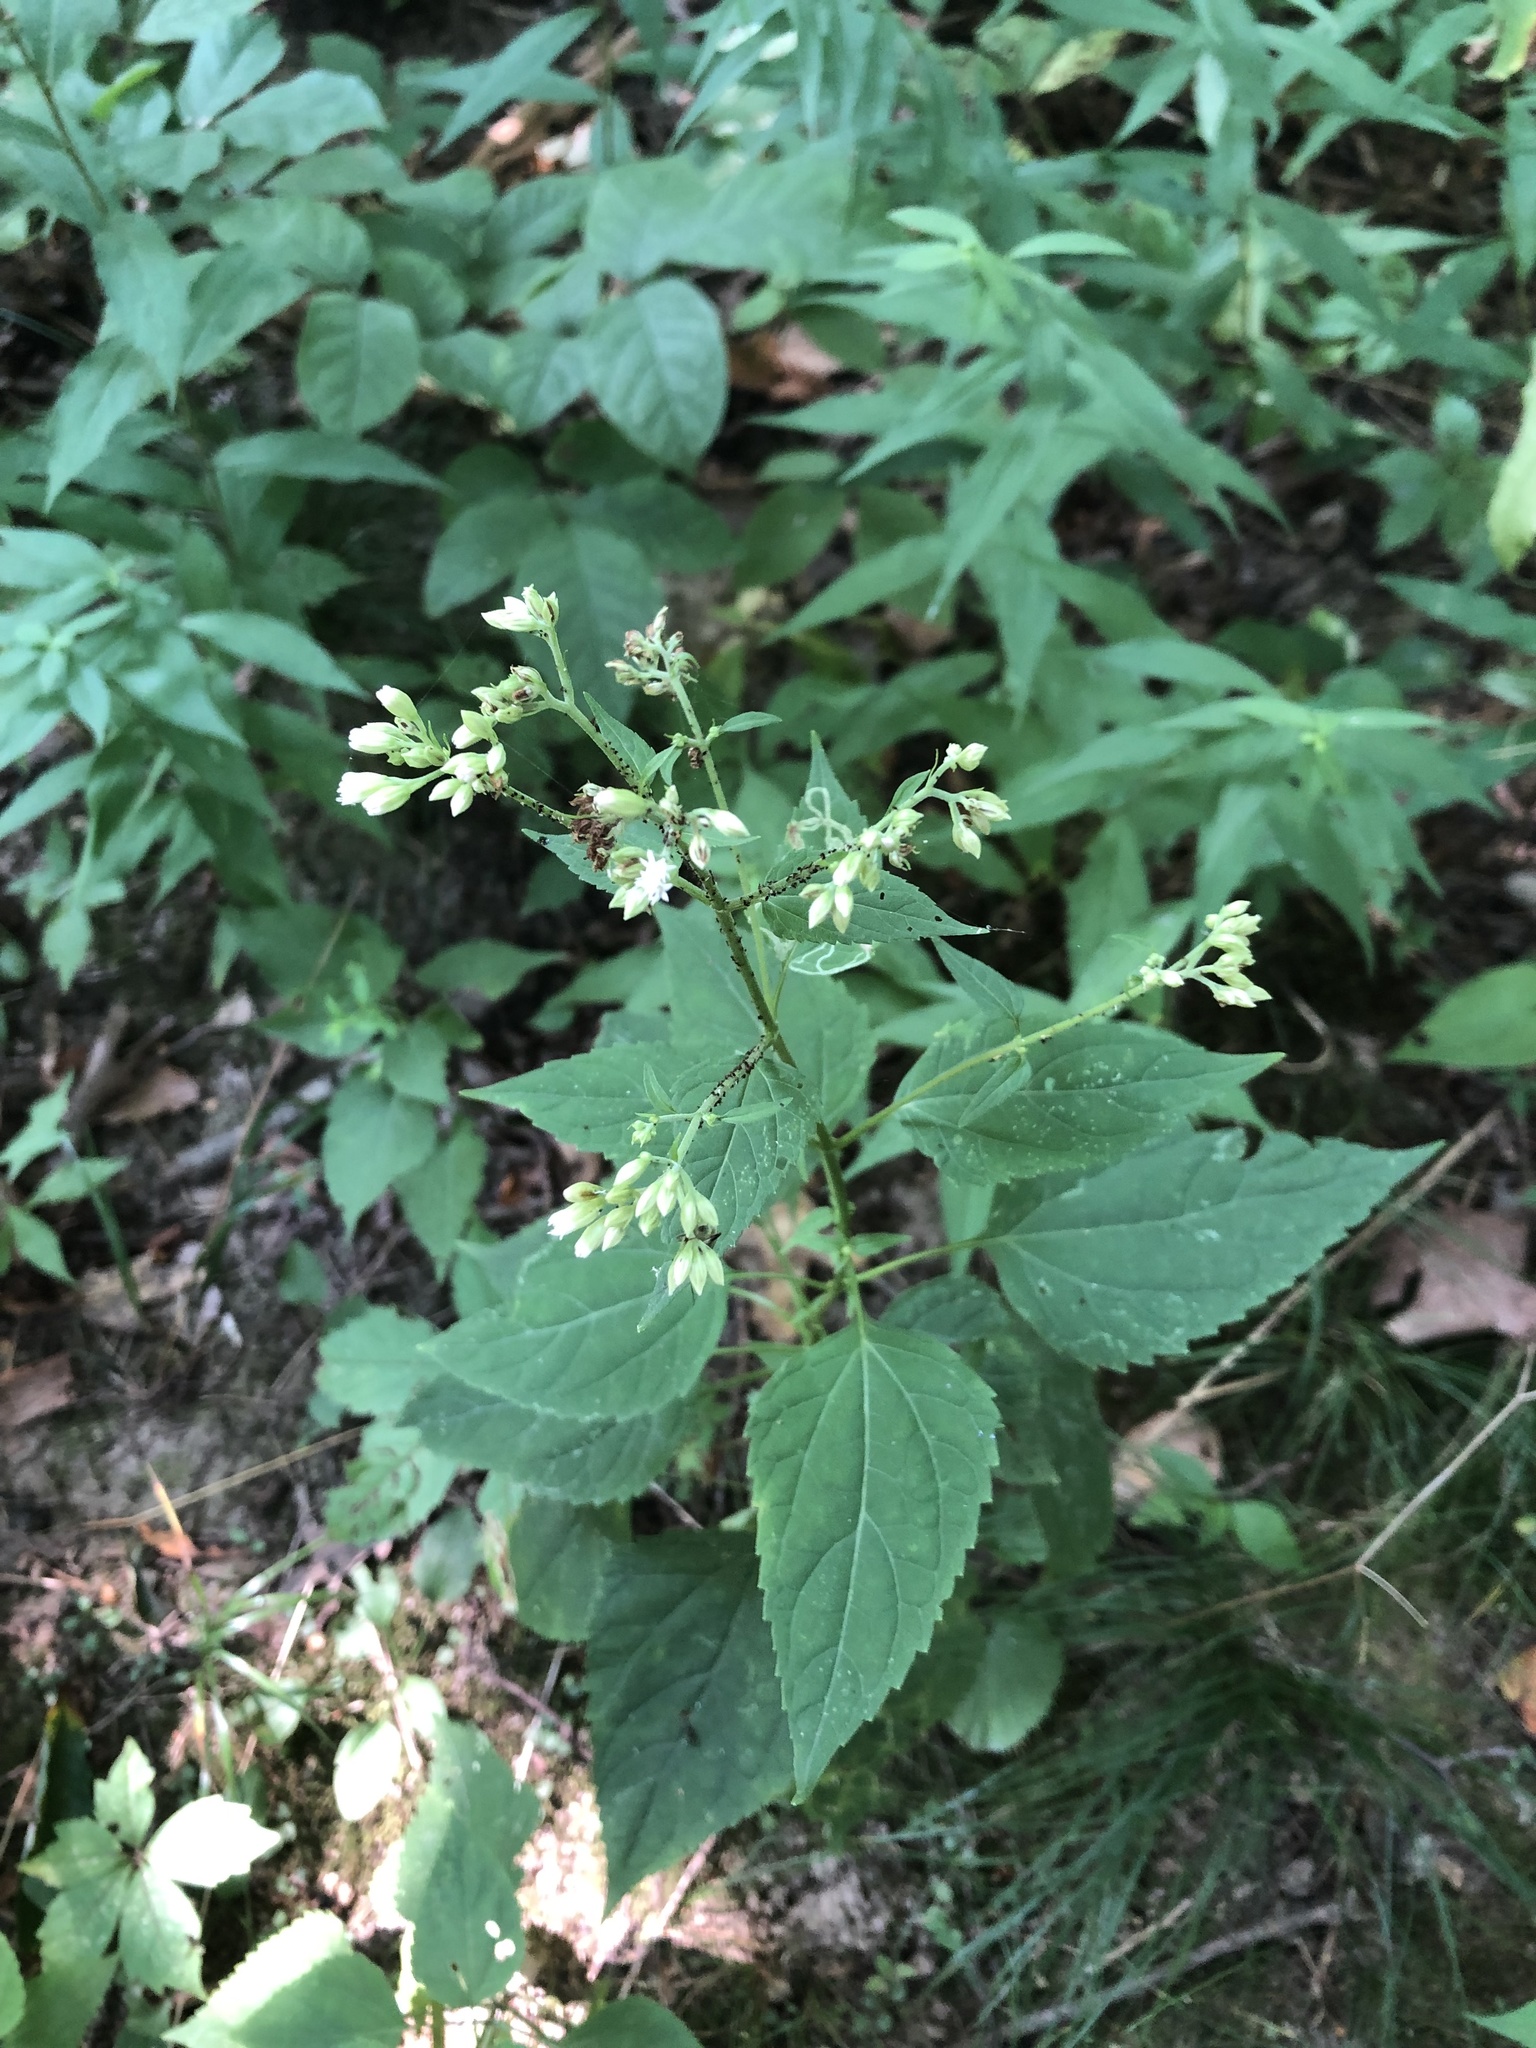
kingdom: Plantae
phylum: Tracheophyta
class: Magnoliopsida
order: Asterales
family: Asteraceae
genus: Ageratina
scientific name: Ageratina altissima
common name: White snakeroot
